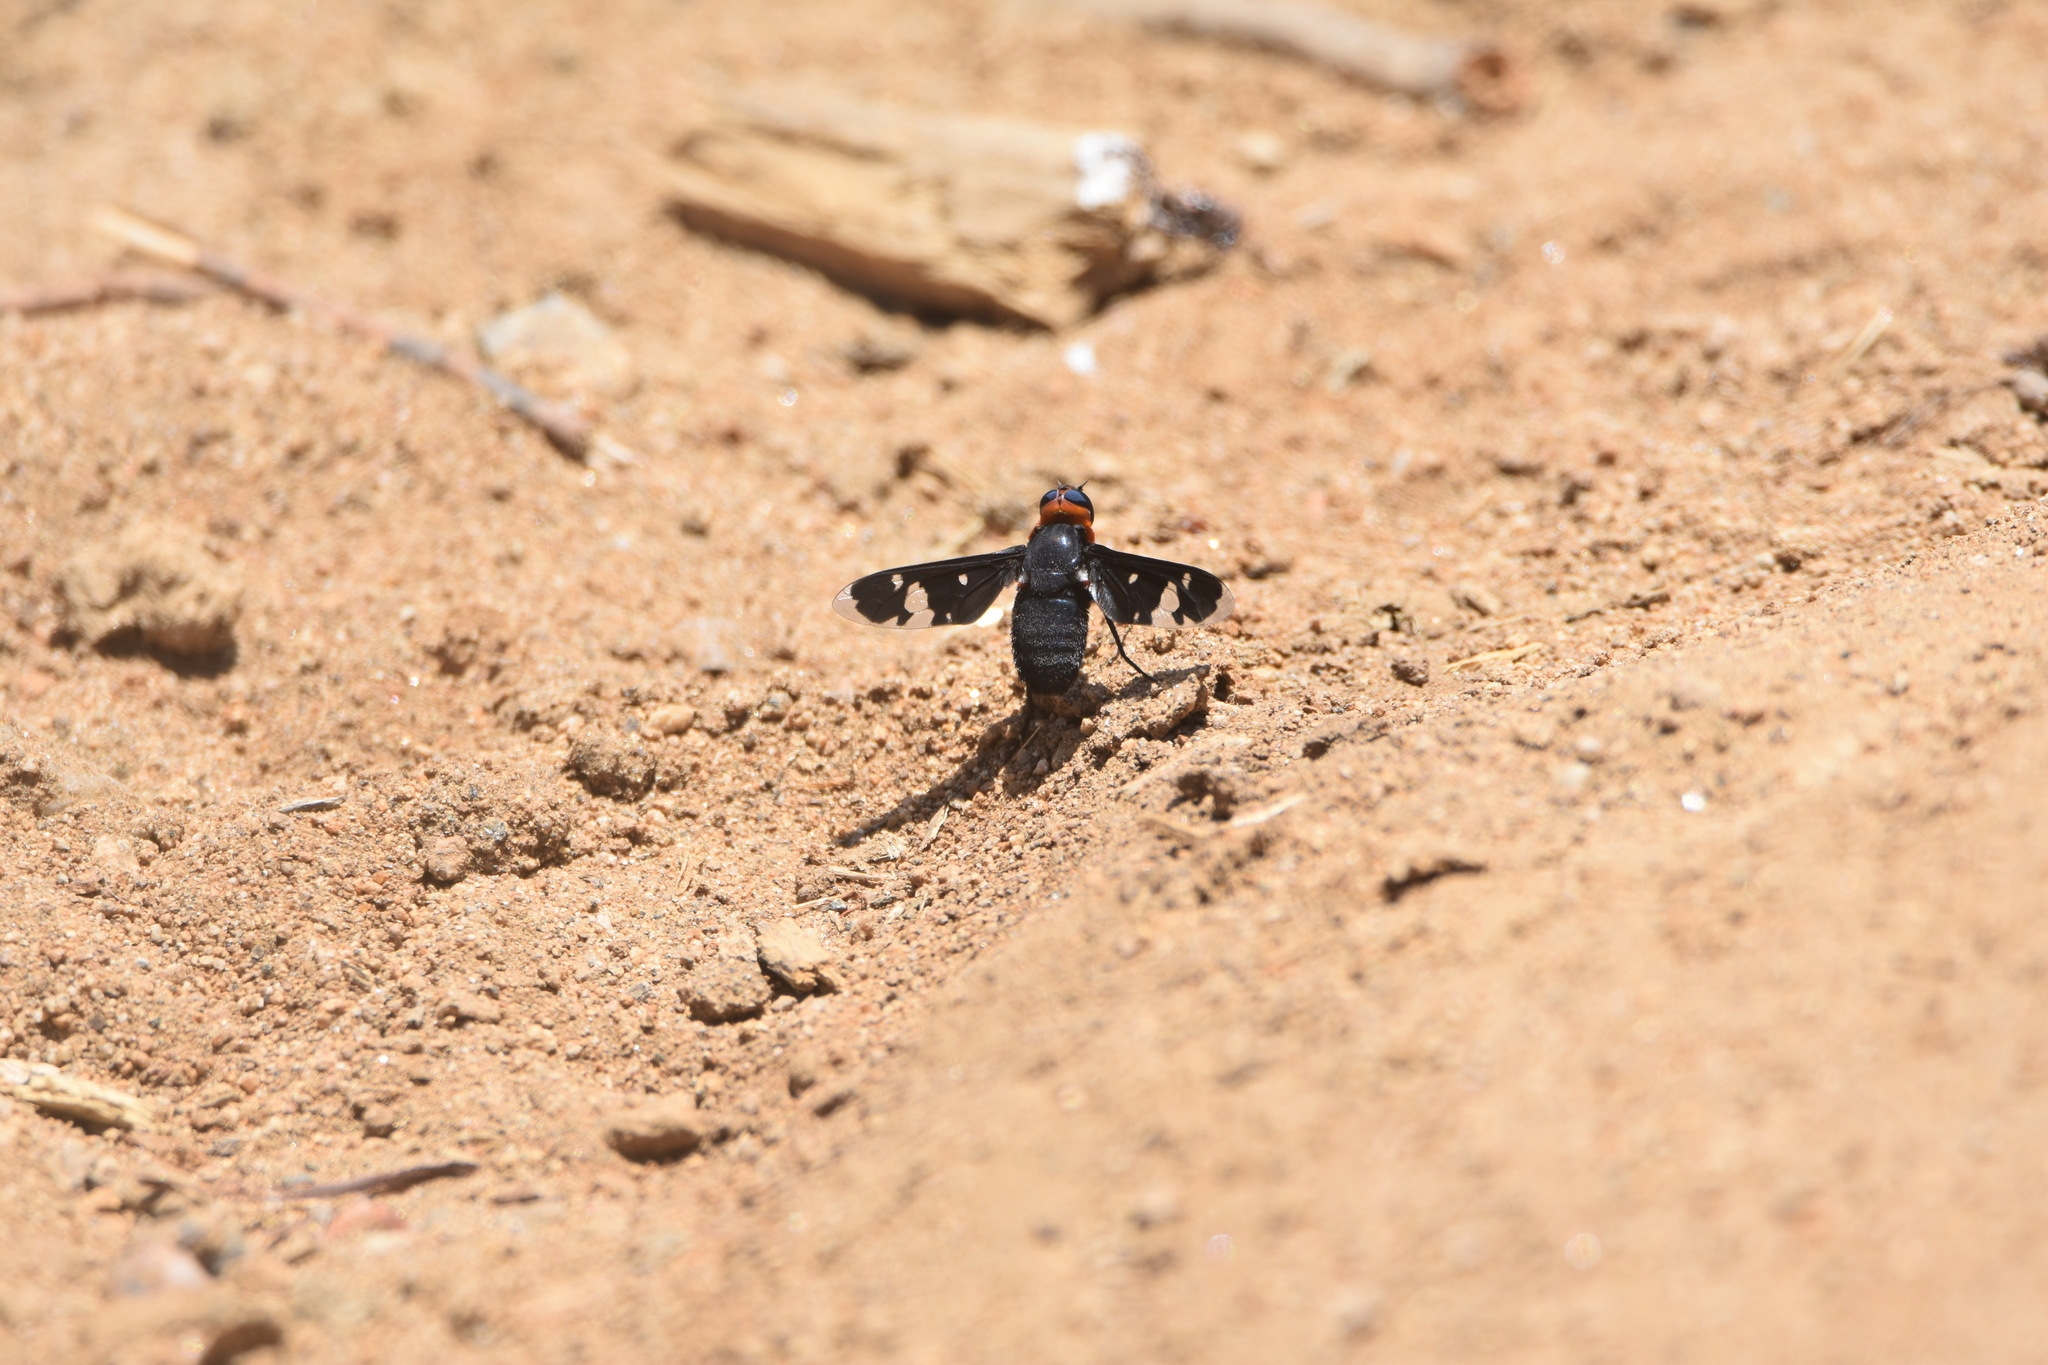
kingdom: Animalia
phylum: Arthropoda
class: Insecta
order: Diptera
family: Bombyliidae
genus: Hyperalonia
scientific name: Hyperalonia chilensis
